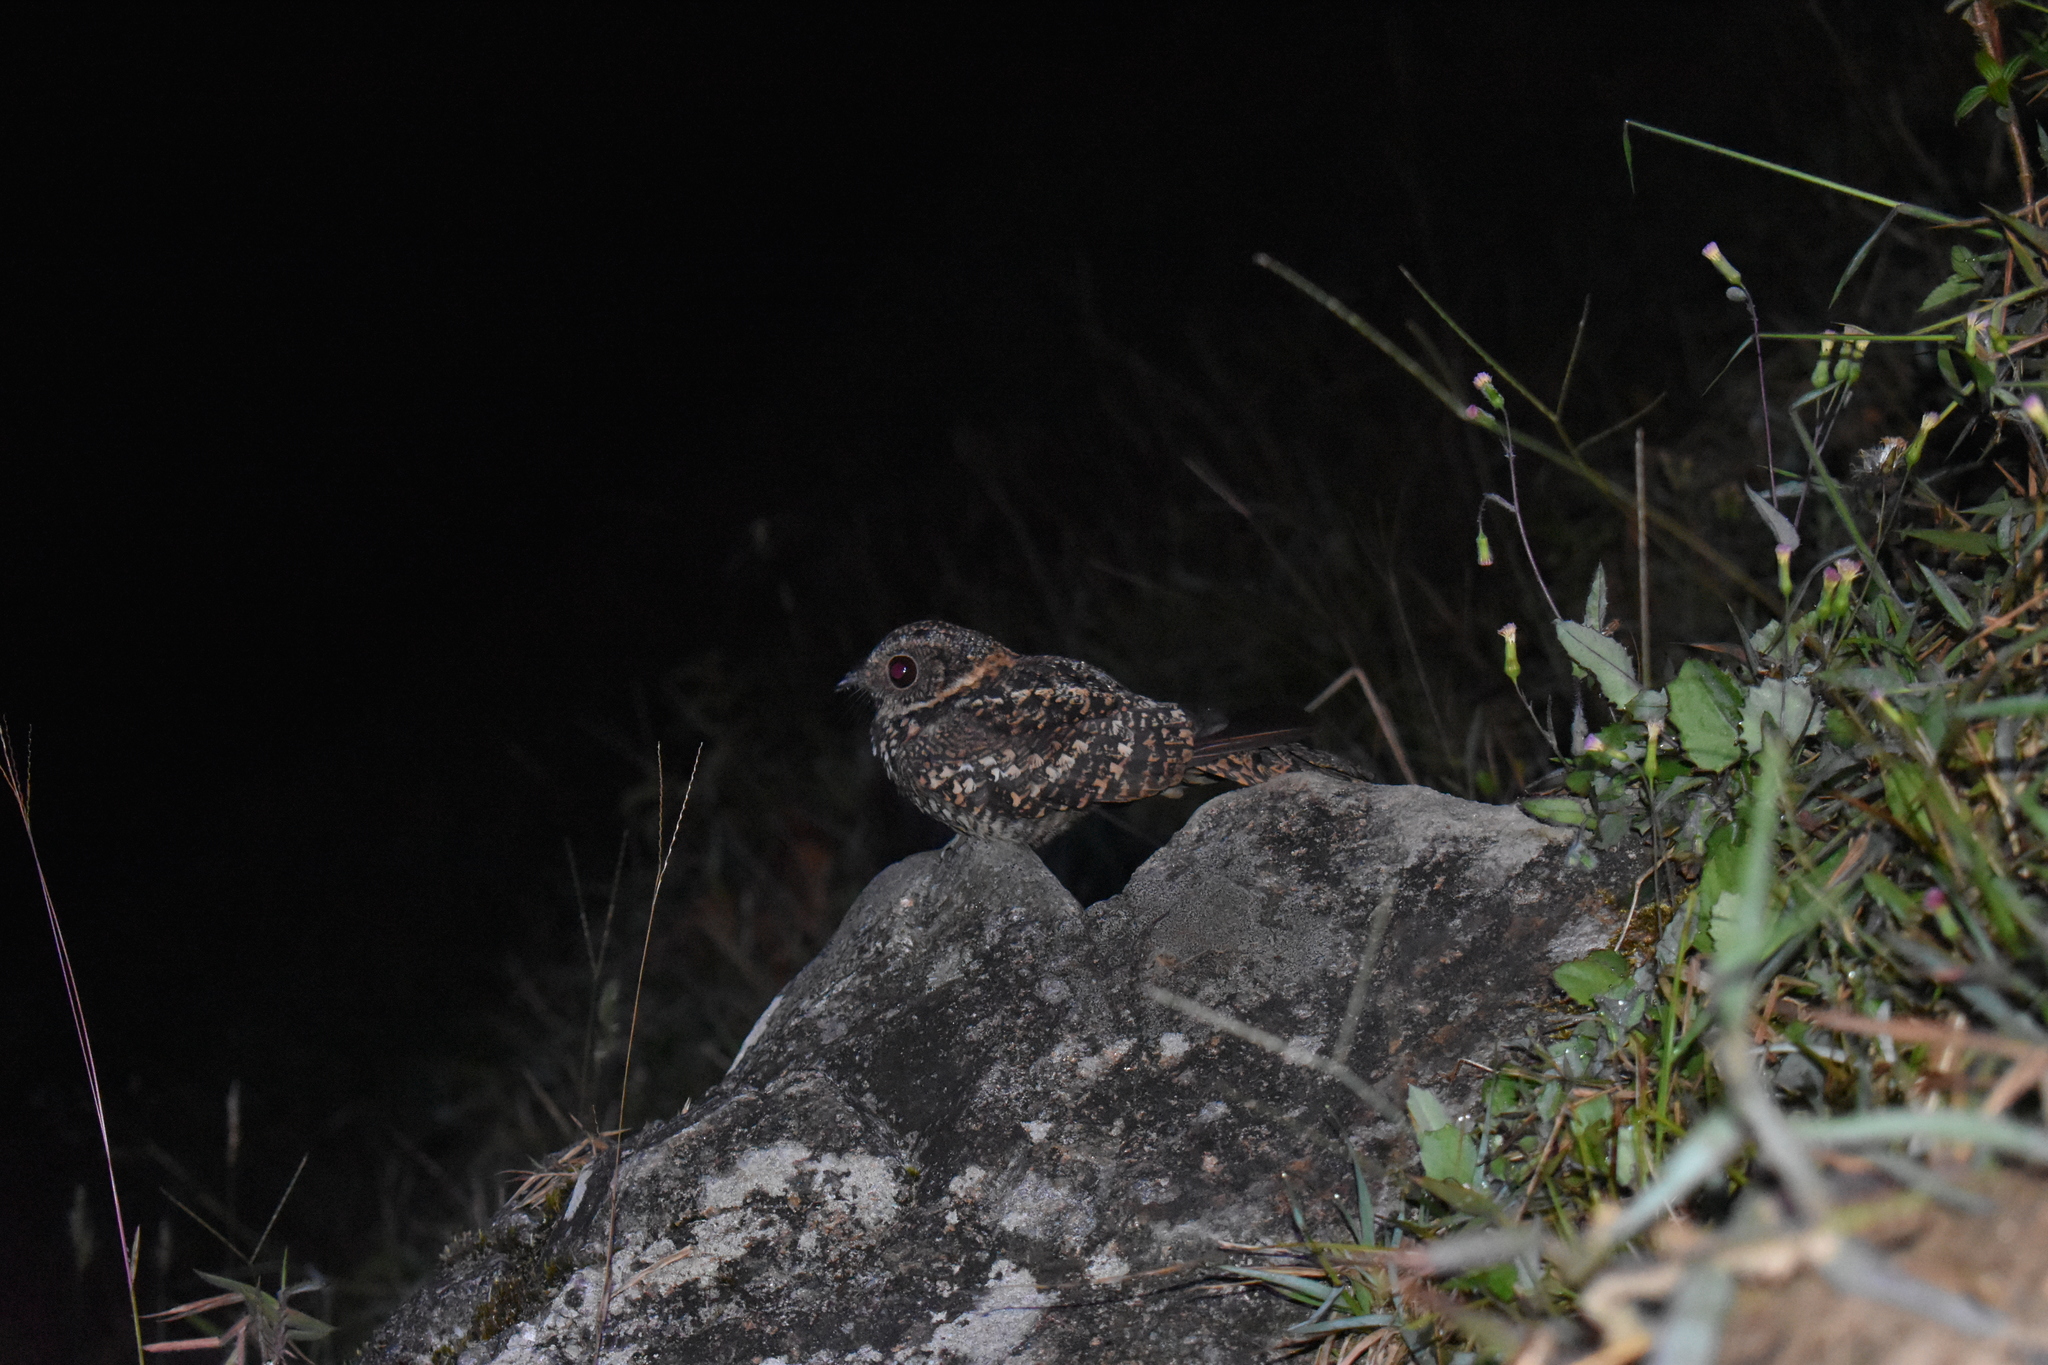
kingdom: Animalia
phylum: Chordata
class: Aves
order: Caprimulgiformes
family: Caprimulgidae
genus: Chordeiles
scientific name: Chordeiles minor
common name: Common nighthawk
